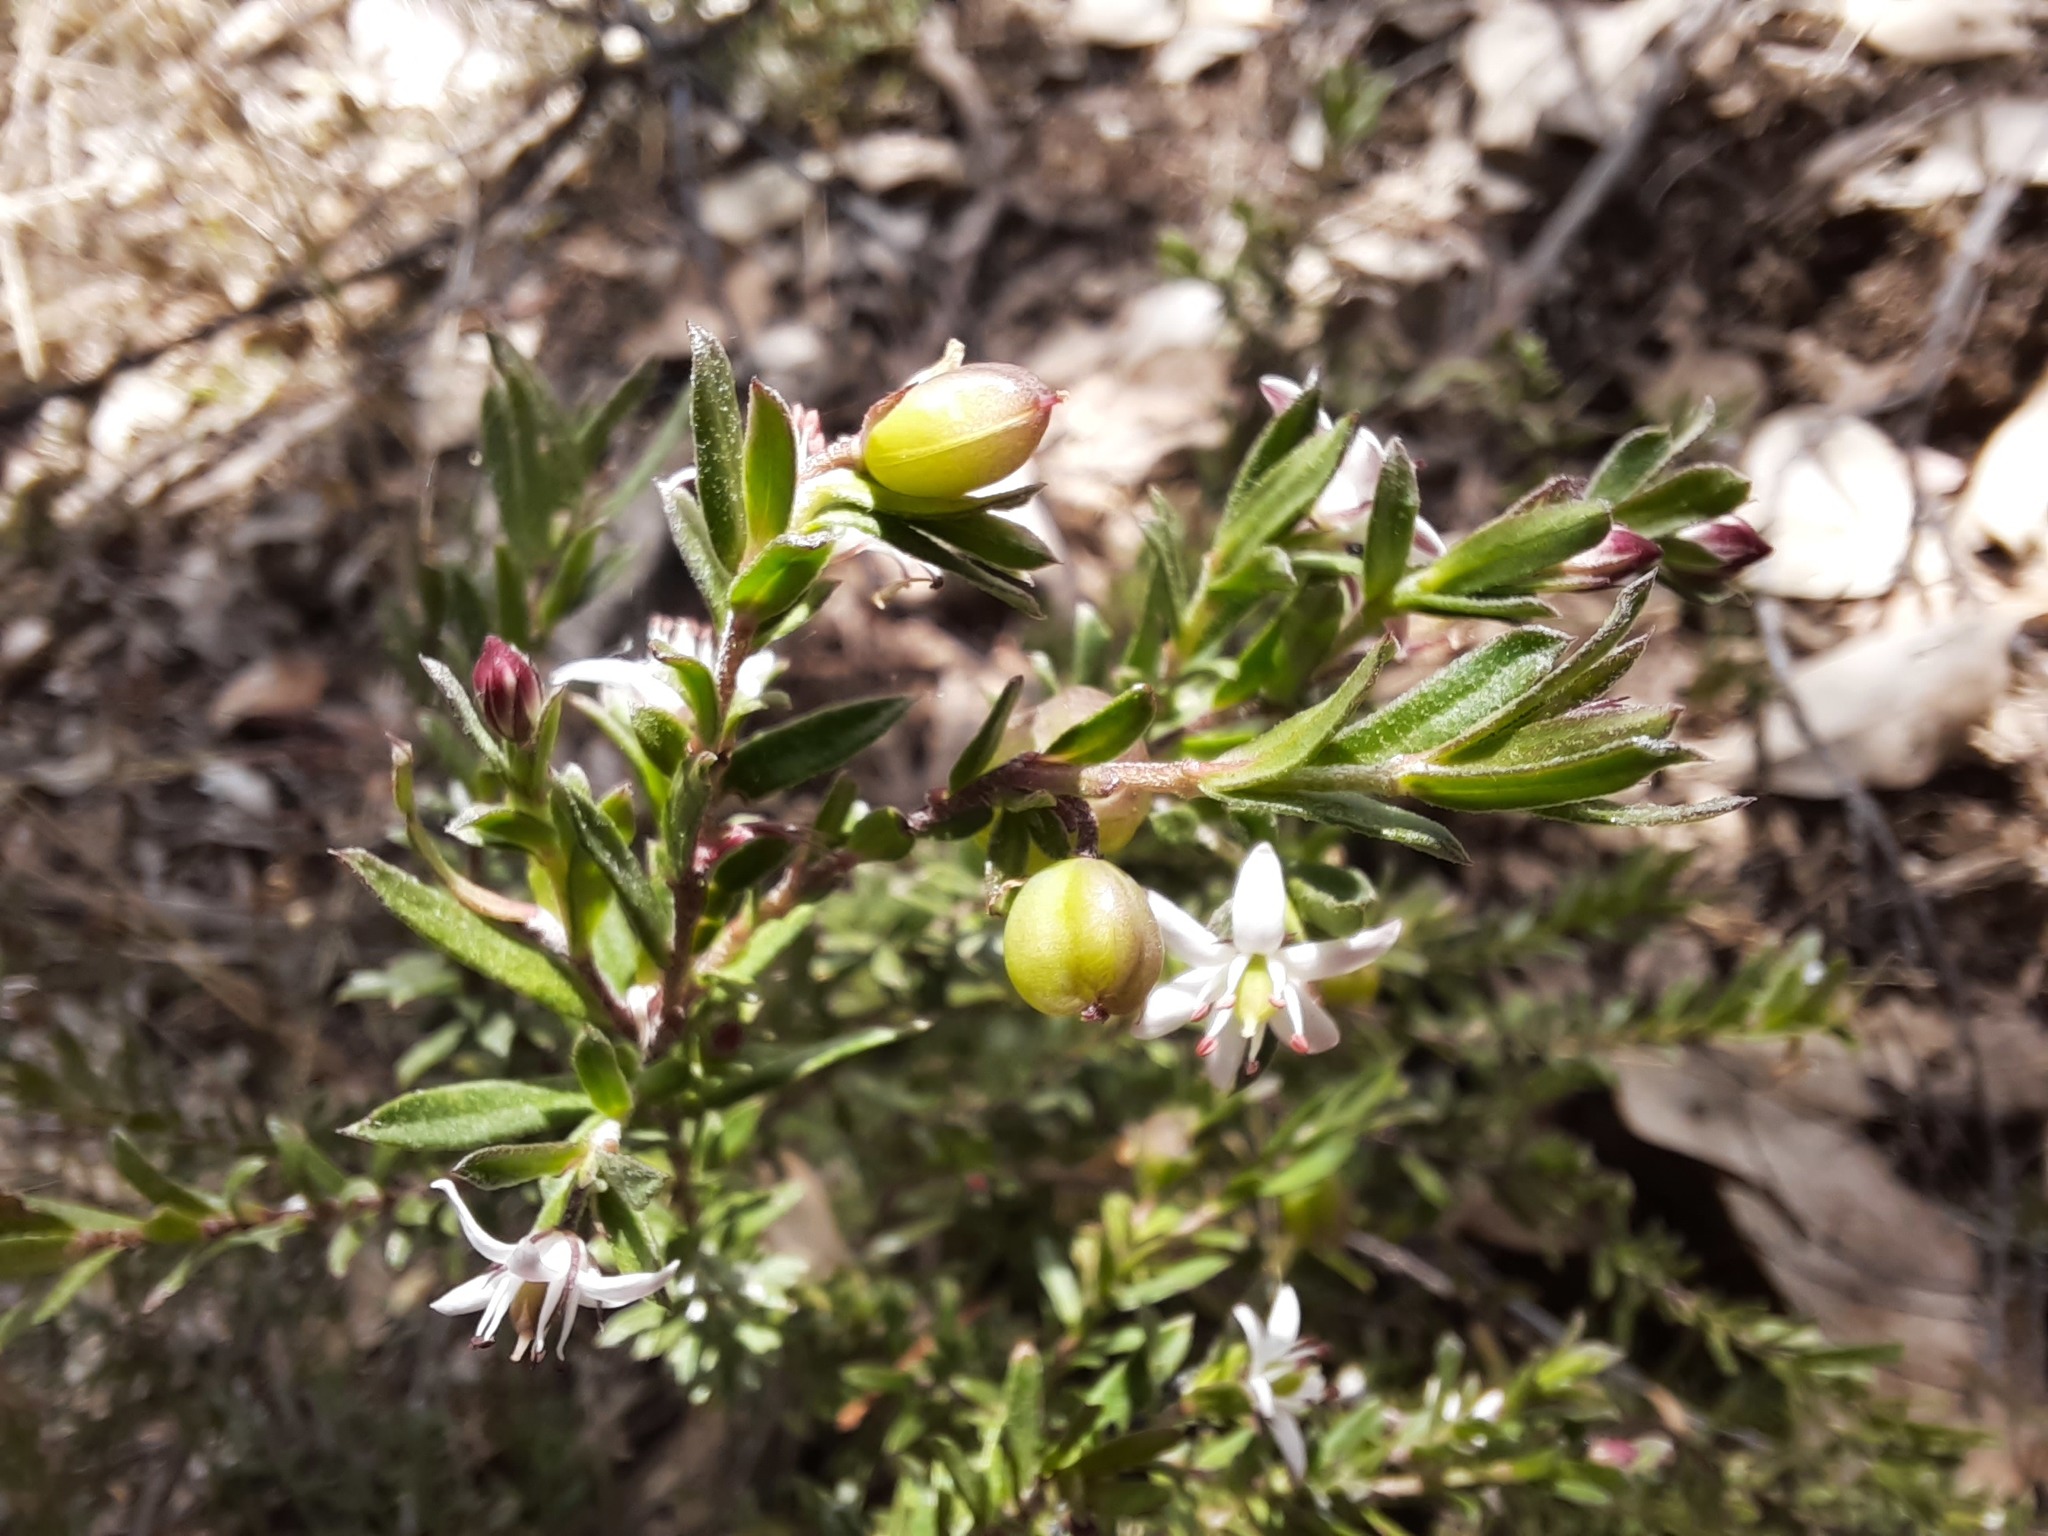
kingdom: Plantae
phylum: Tracheophyta
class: Magnoliopsida
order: Apiales
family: Pittosporaceae
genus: Rhytidosporum
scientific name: Rhytidosporum procumbens
